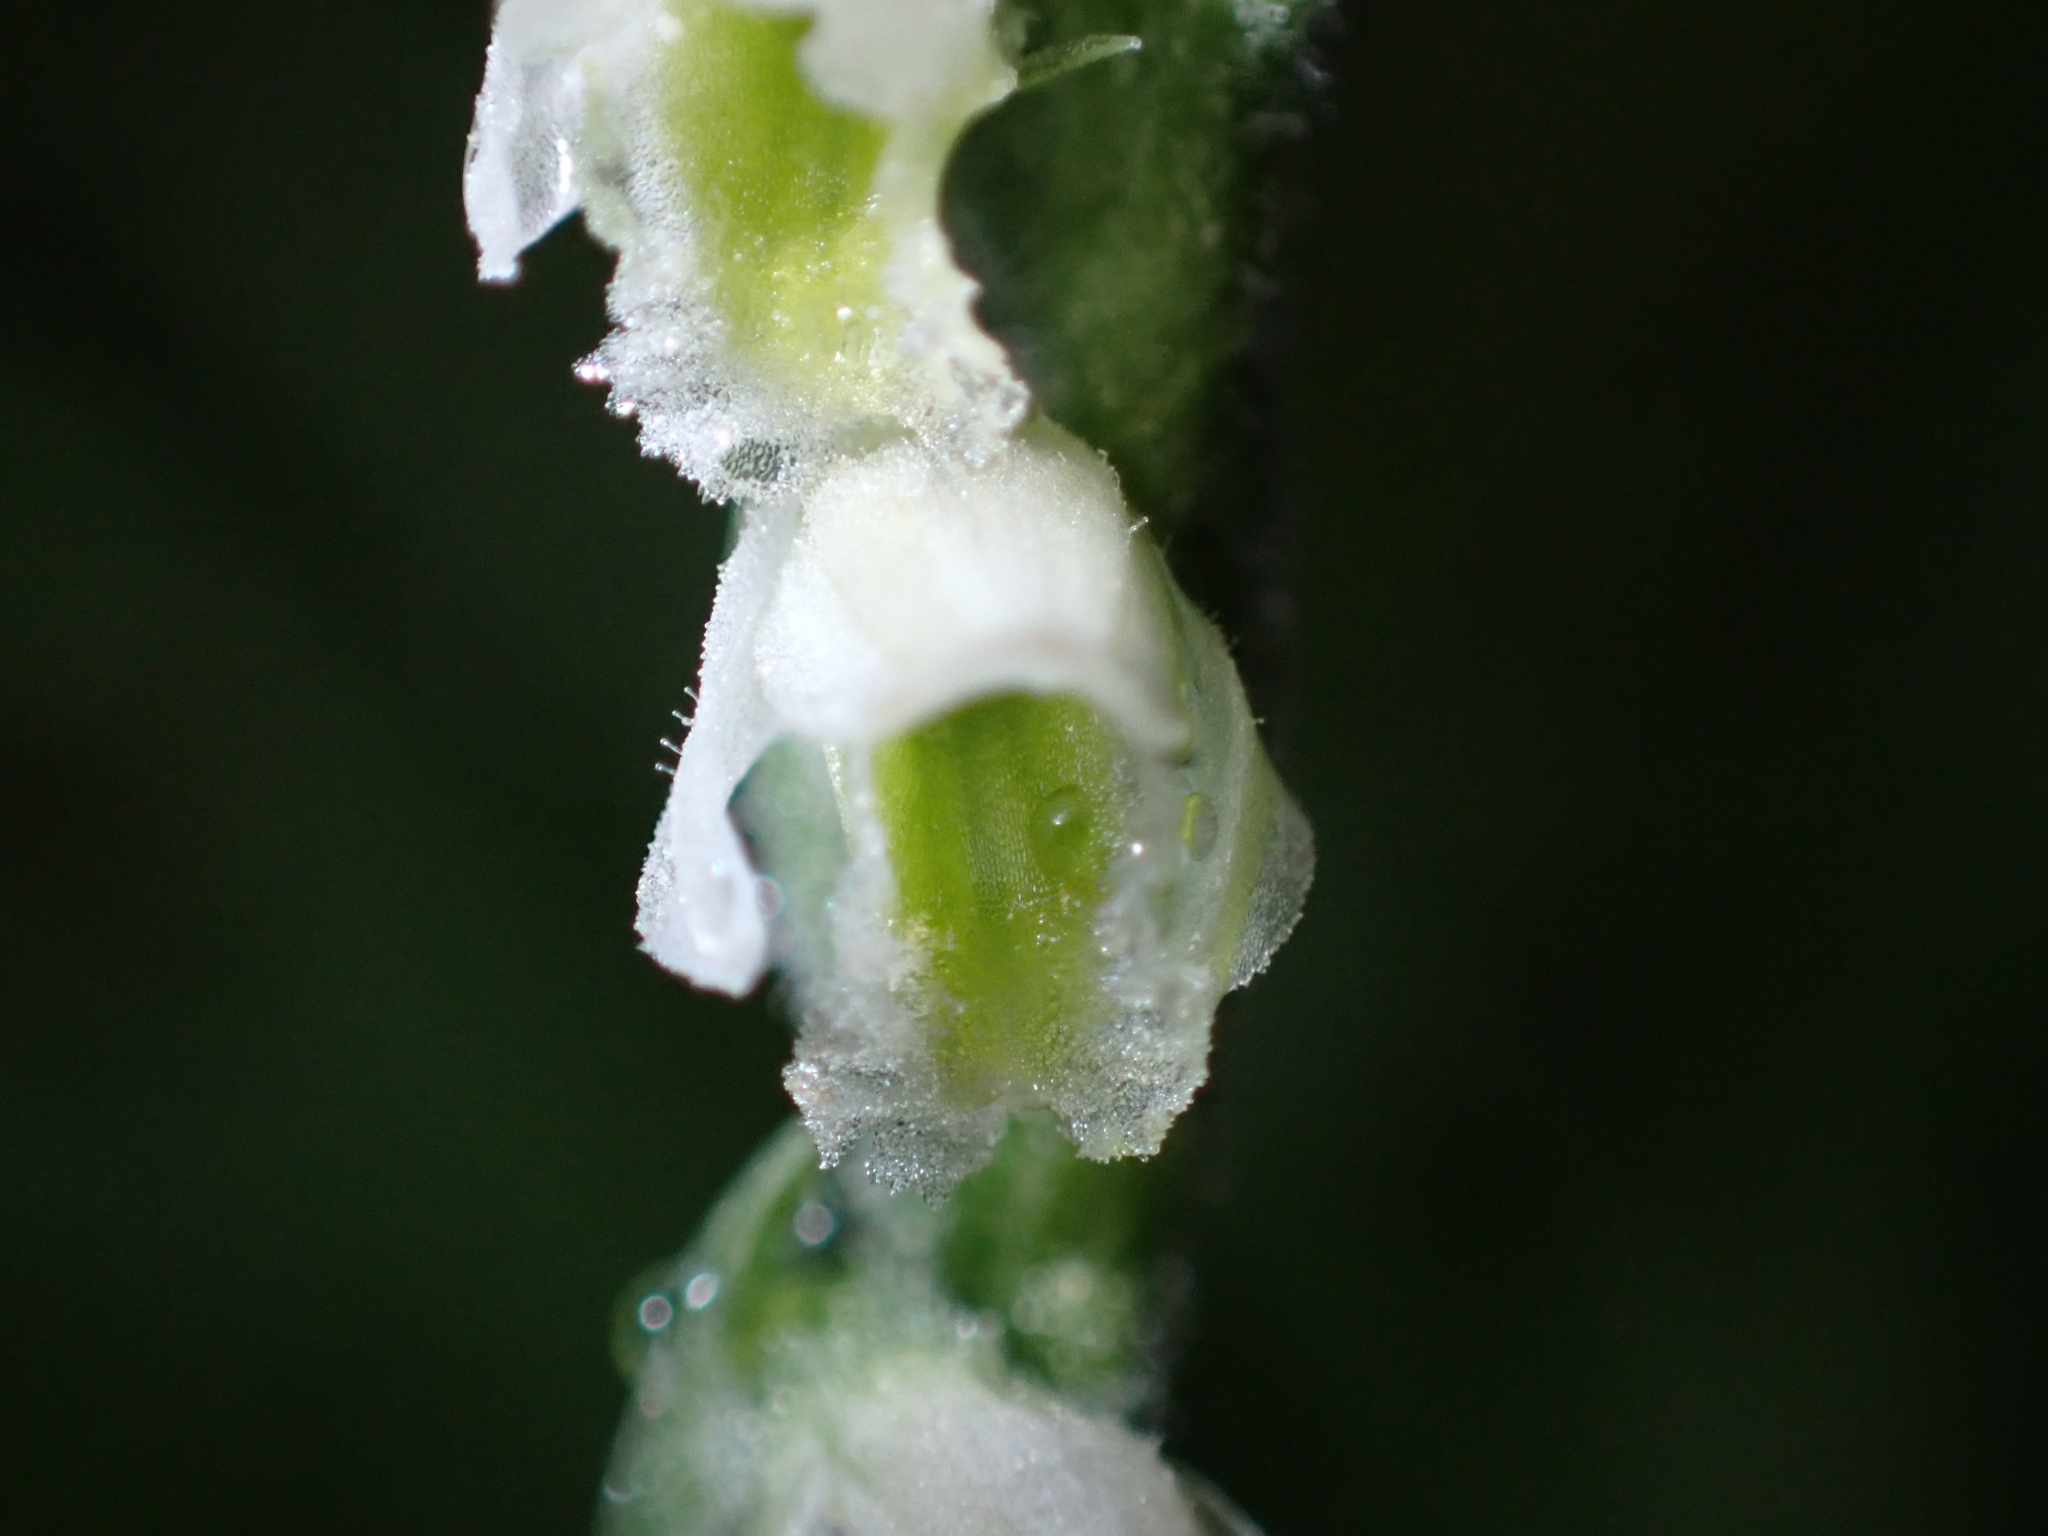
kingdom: Plantae
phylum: Tracheophyta
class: Liliopsida
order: Asparagales
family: Orchidaceae
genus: Spiranthes
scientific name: Spiranthes spiralis
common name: Autumn lady's-tresses
